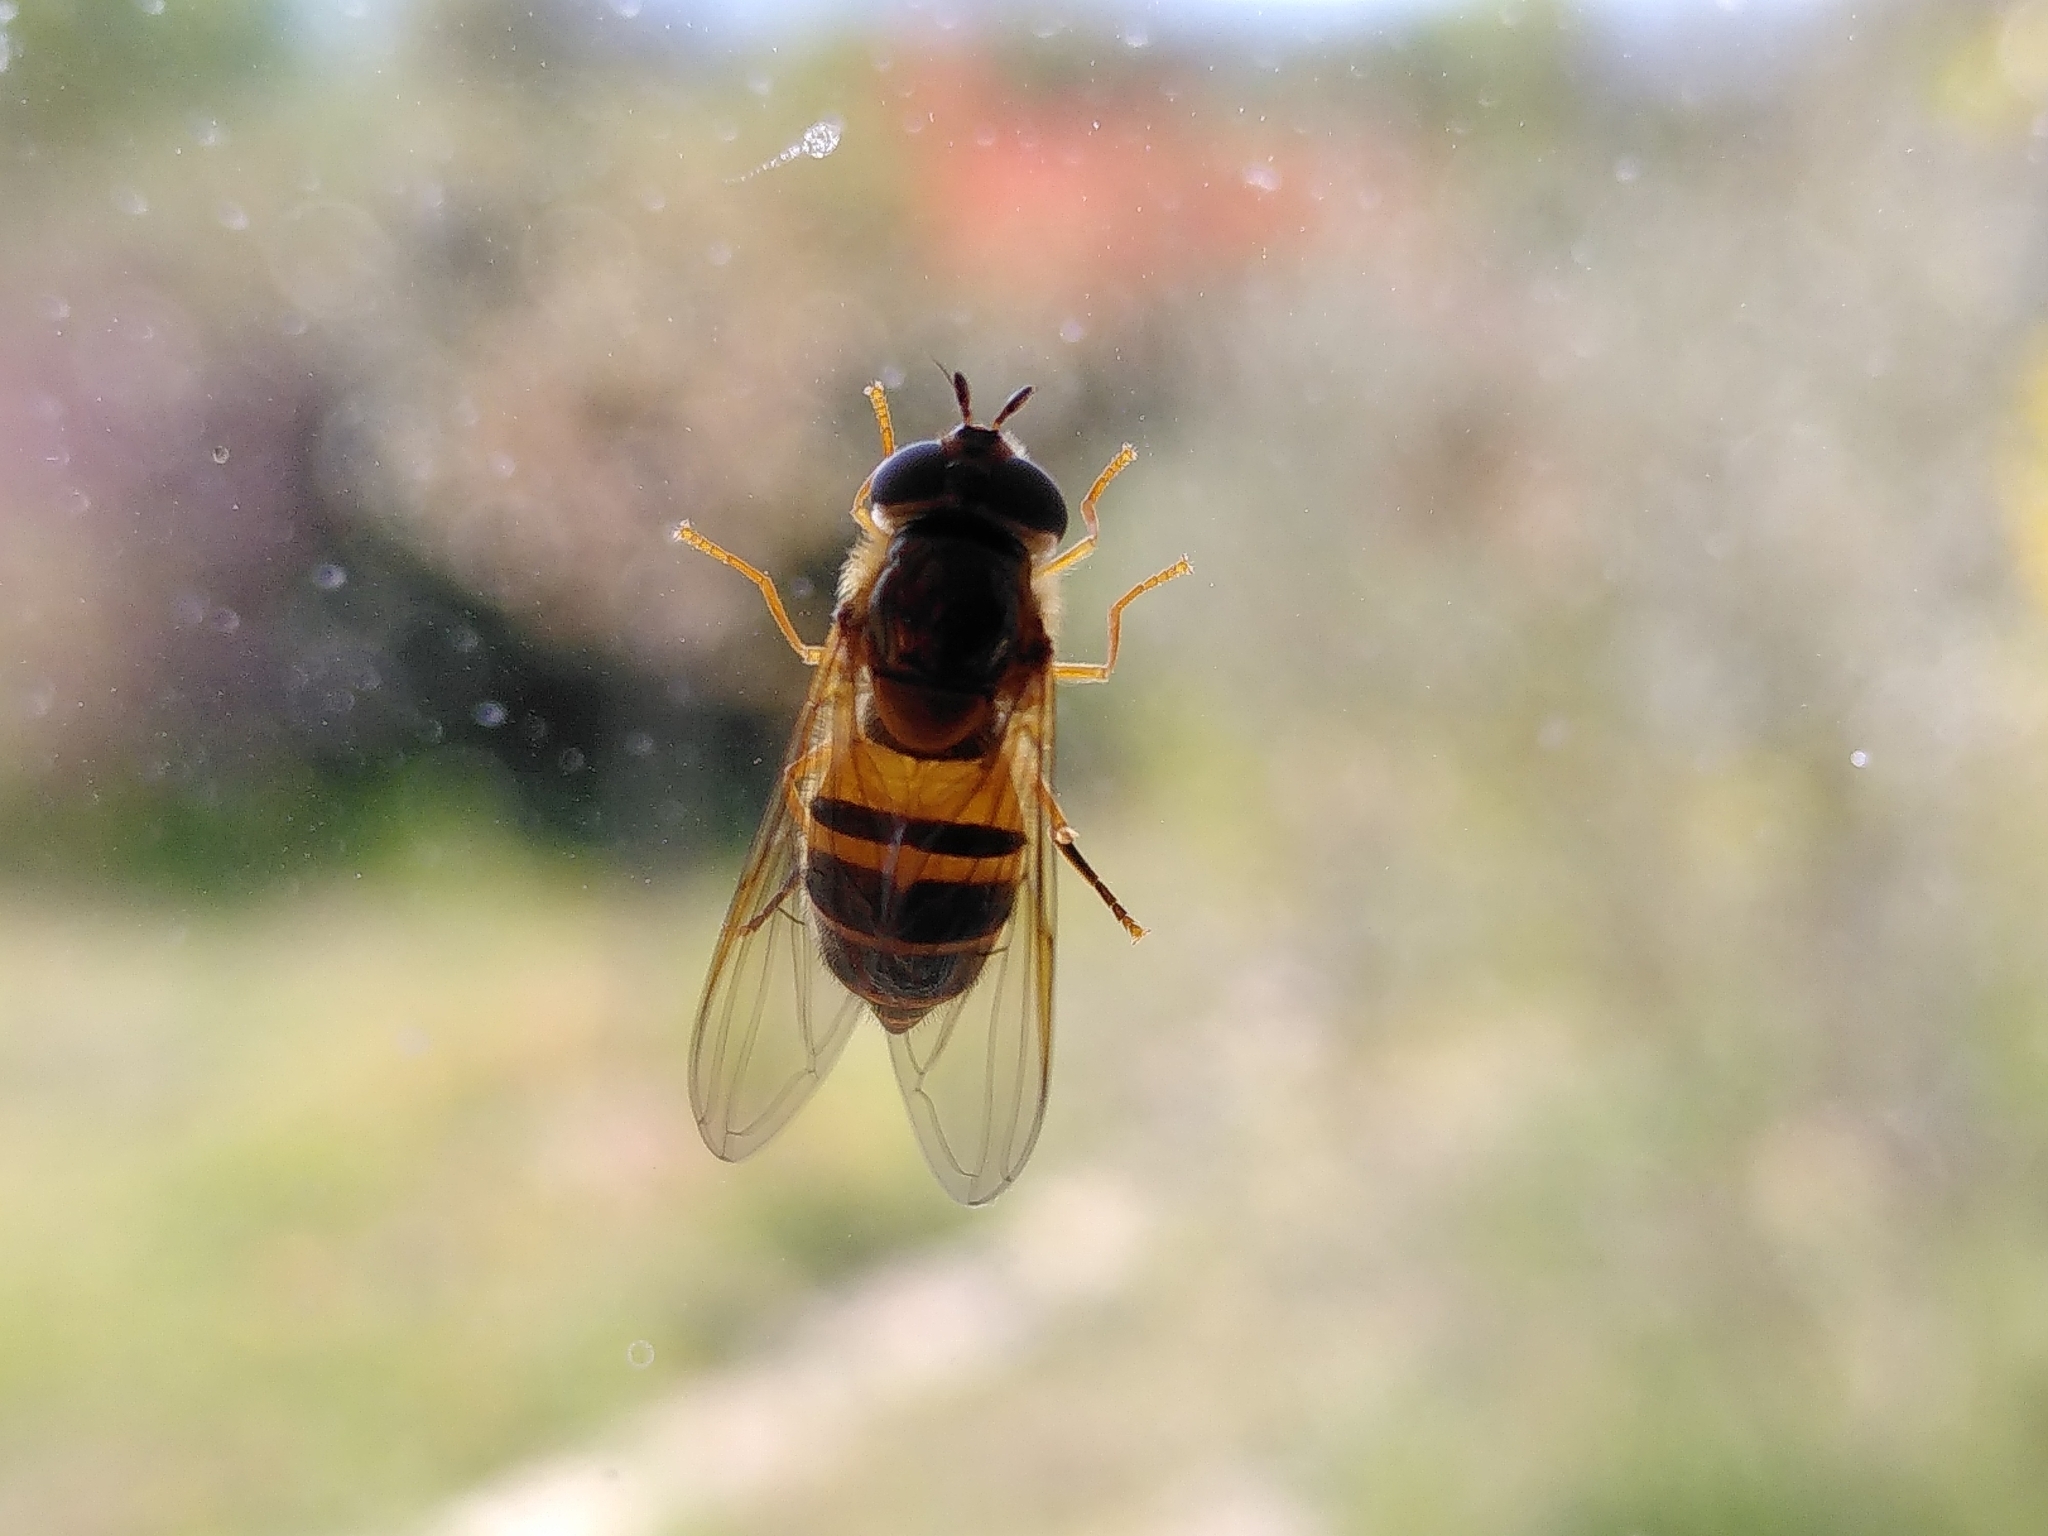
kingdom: Animalia
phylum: Arthropoda
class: Insecta
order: Diptera
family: Syrphidae
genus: Epistrophe
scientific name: Epistrophe eligans
